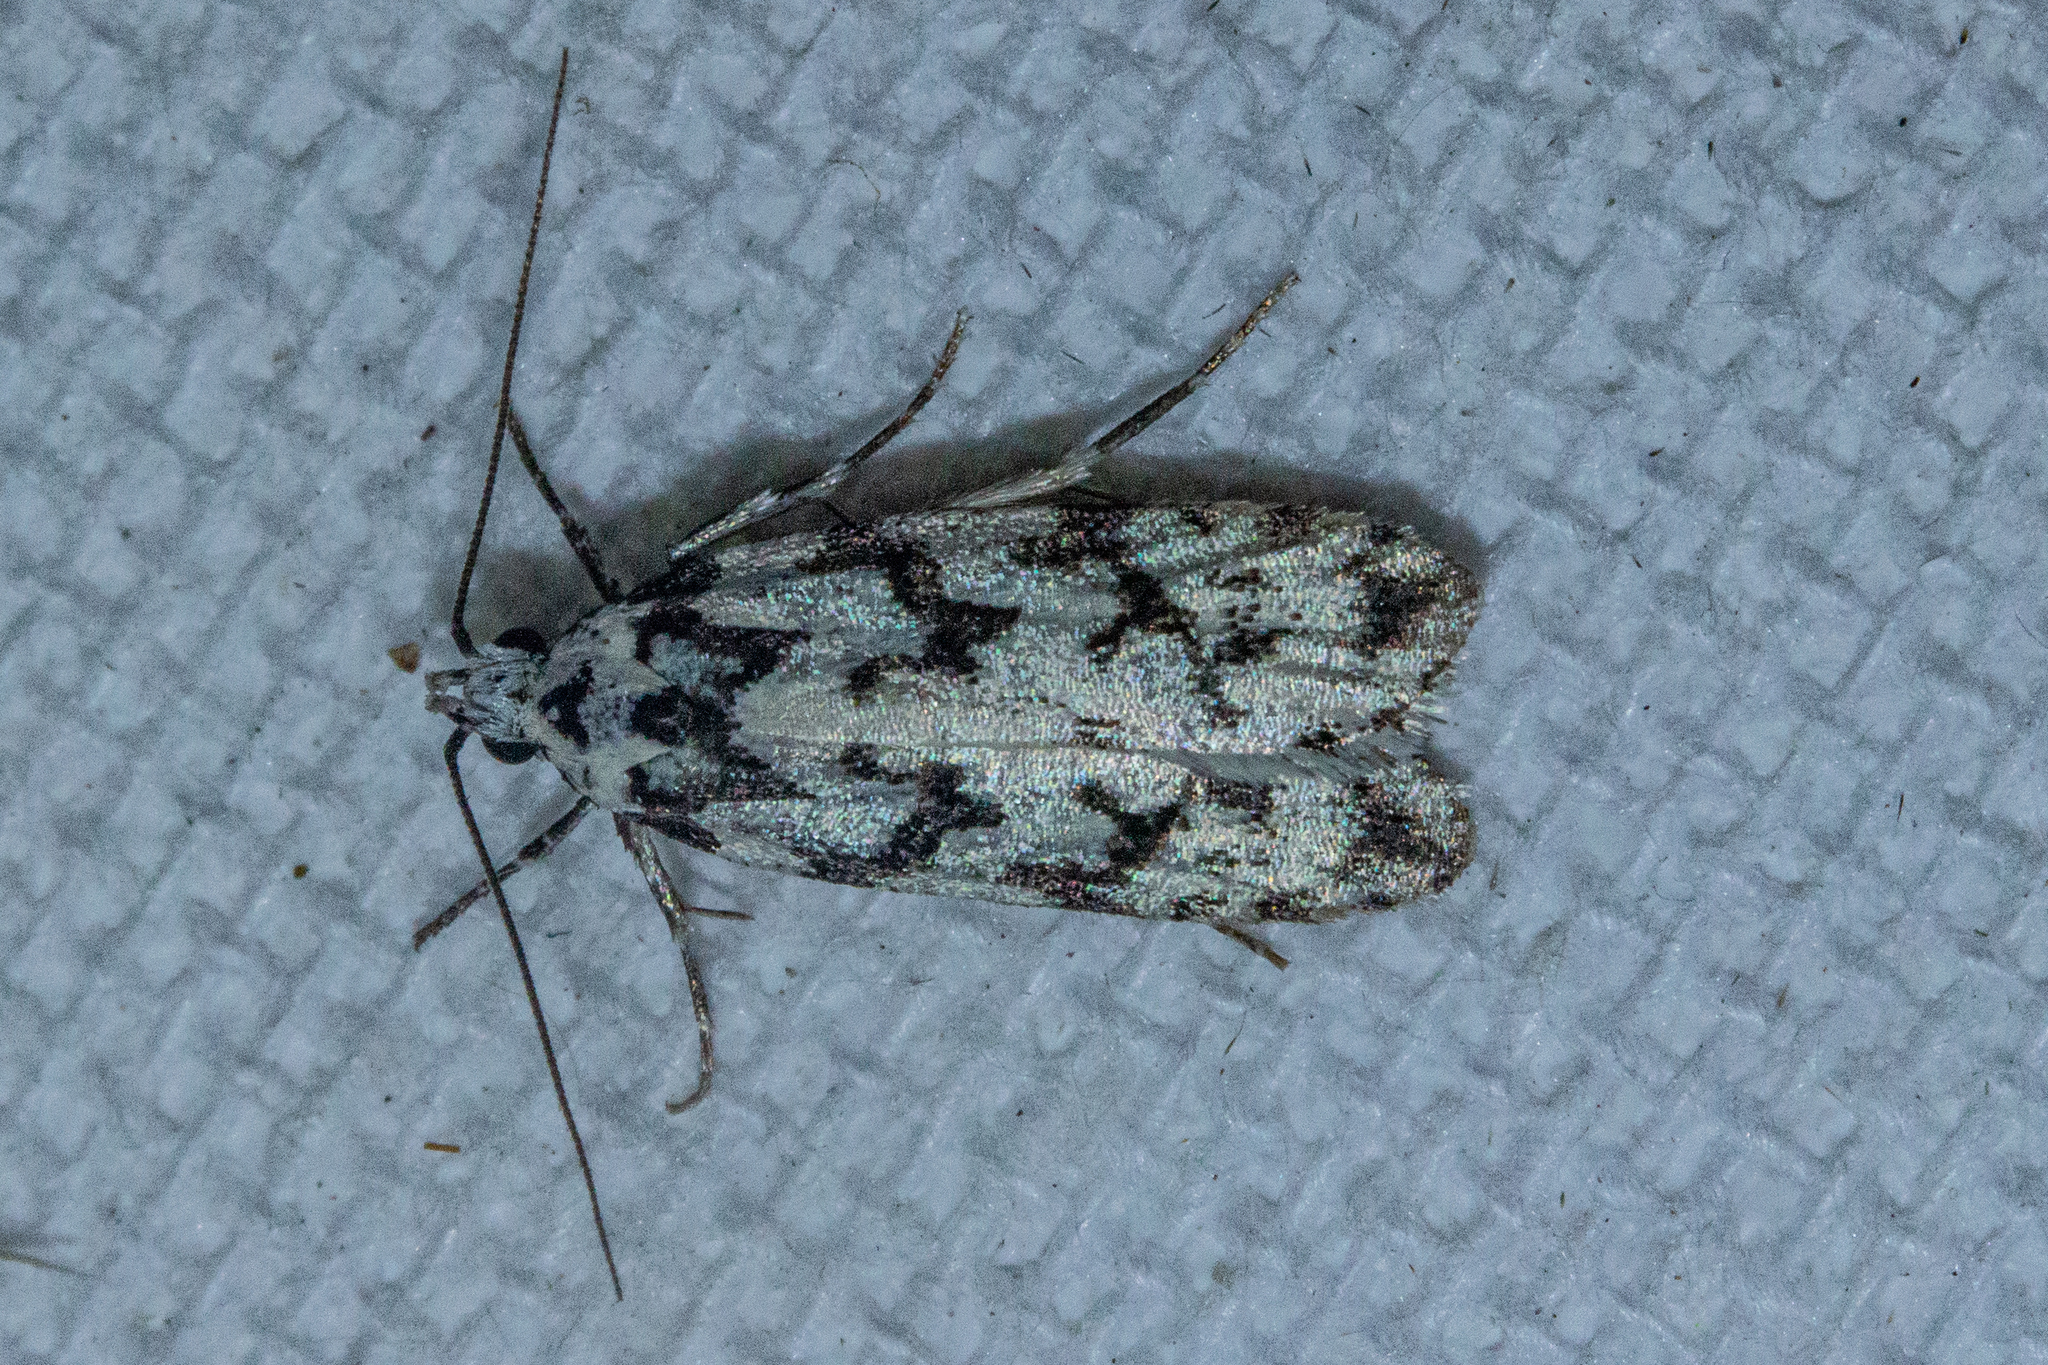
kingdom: Animalia
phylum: Arthropoda
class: Insecta
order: Lepidoptera
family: Oecophoridae
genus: Izatha
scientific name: Izatha katadiktya
